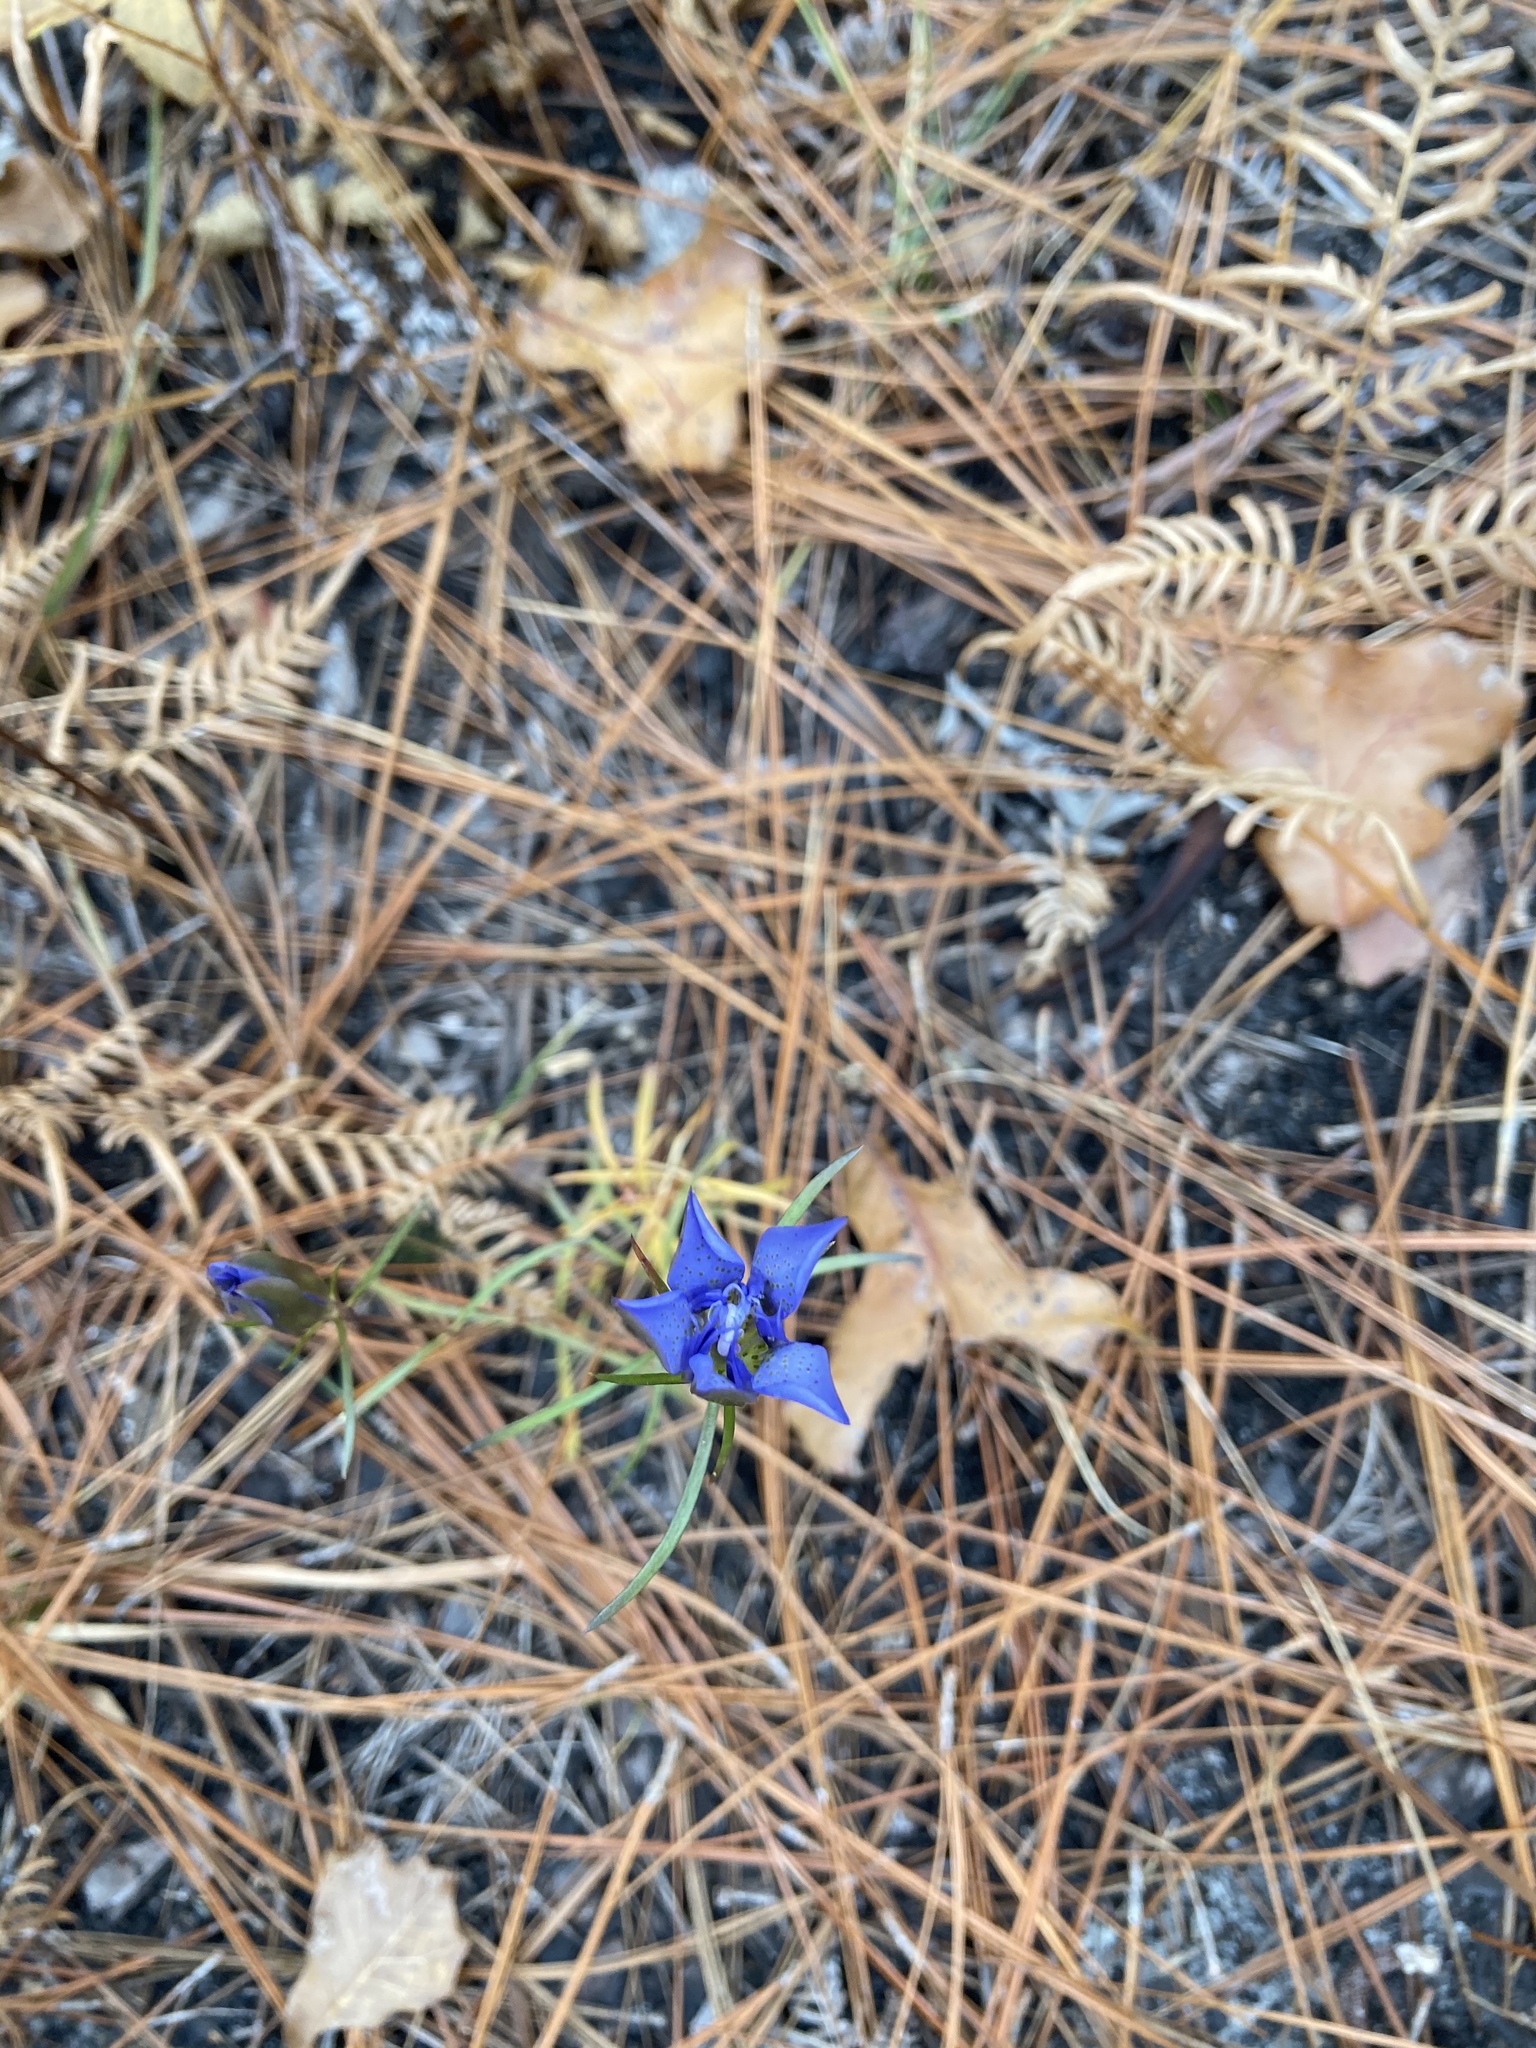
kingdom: Plantae
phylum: Tracheophyta
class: Magnoliopsida
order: Gentianales
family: Gentianaceae
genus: Gentiana
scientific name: Gentiana autumnalis
